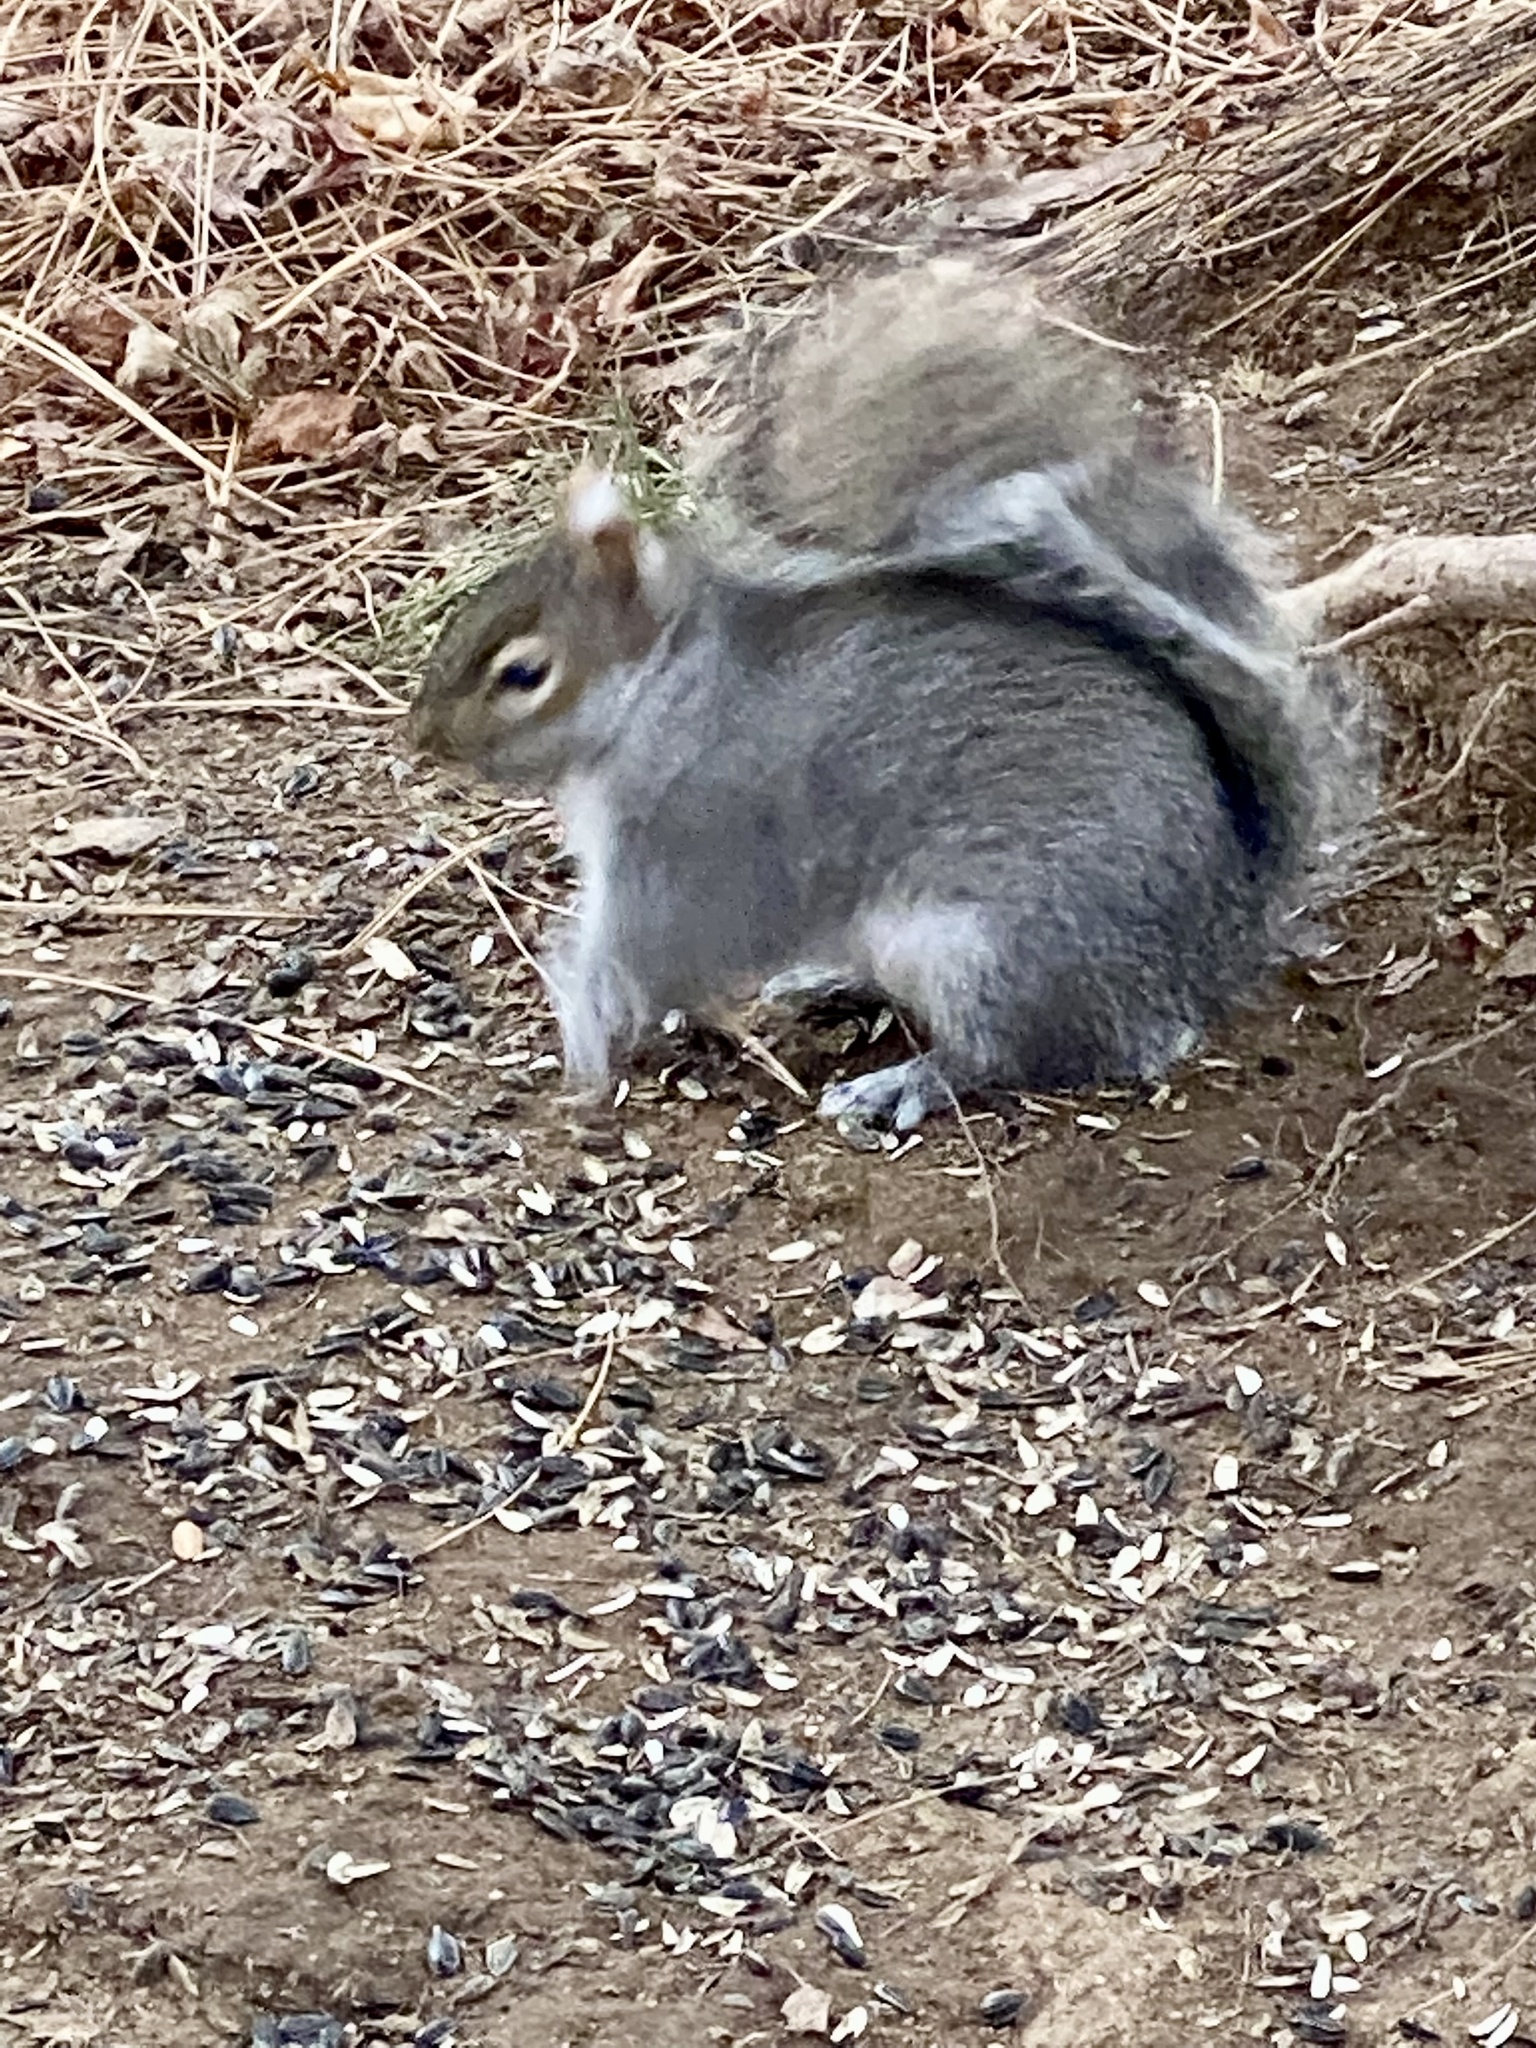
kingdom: Animalia
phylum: Chordata
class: Mammalia
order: Rodentia
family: Sciuridae
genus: Sciurus
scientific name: Sciurus carolinensis
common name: Eastern gray squirrel
